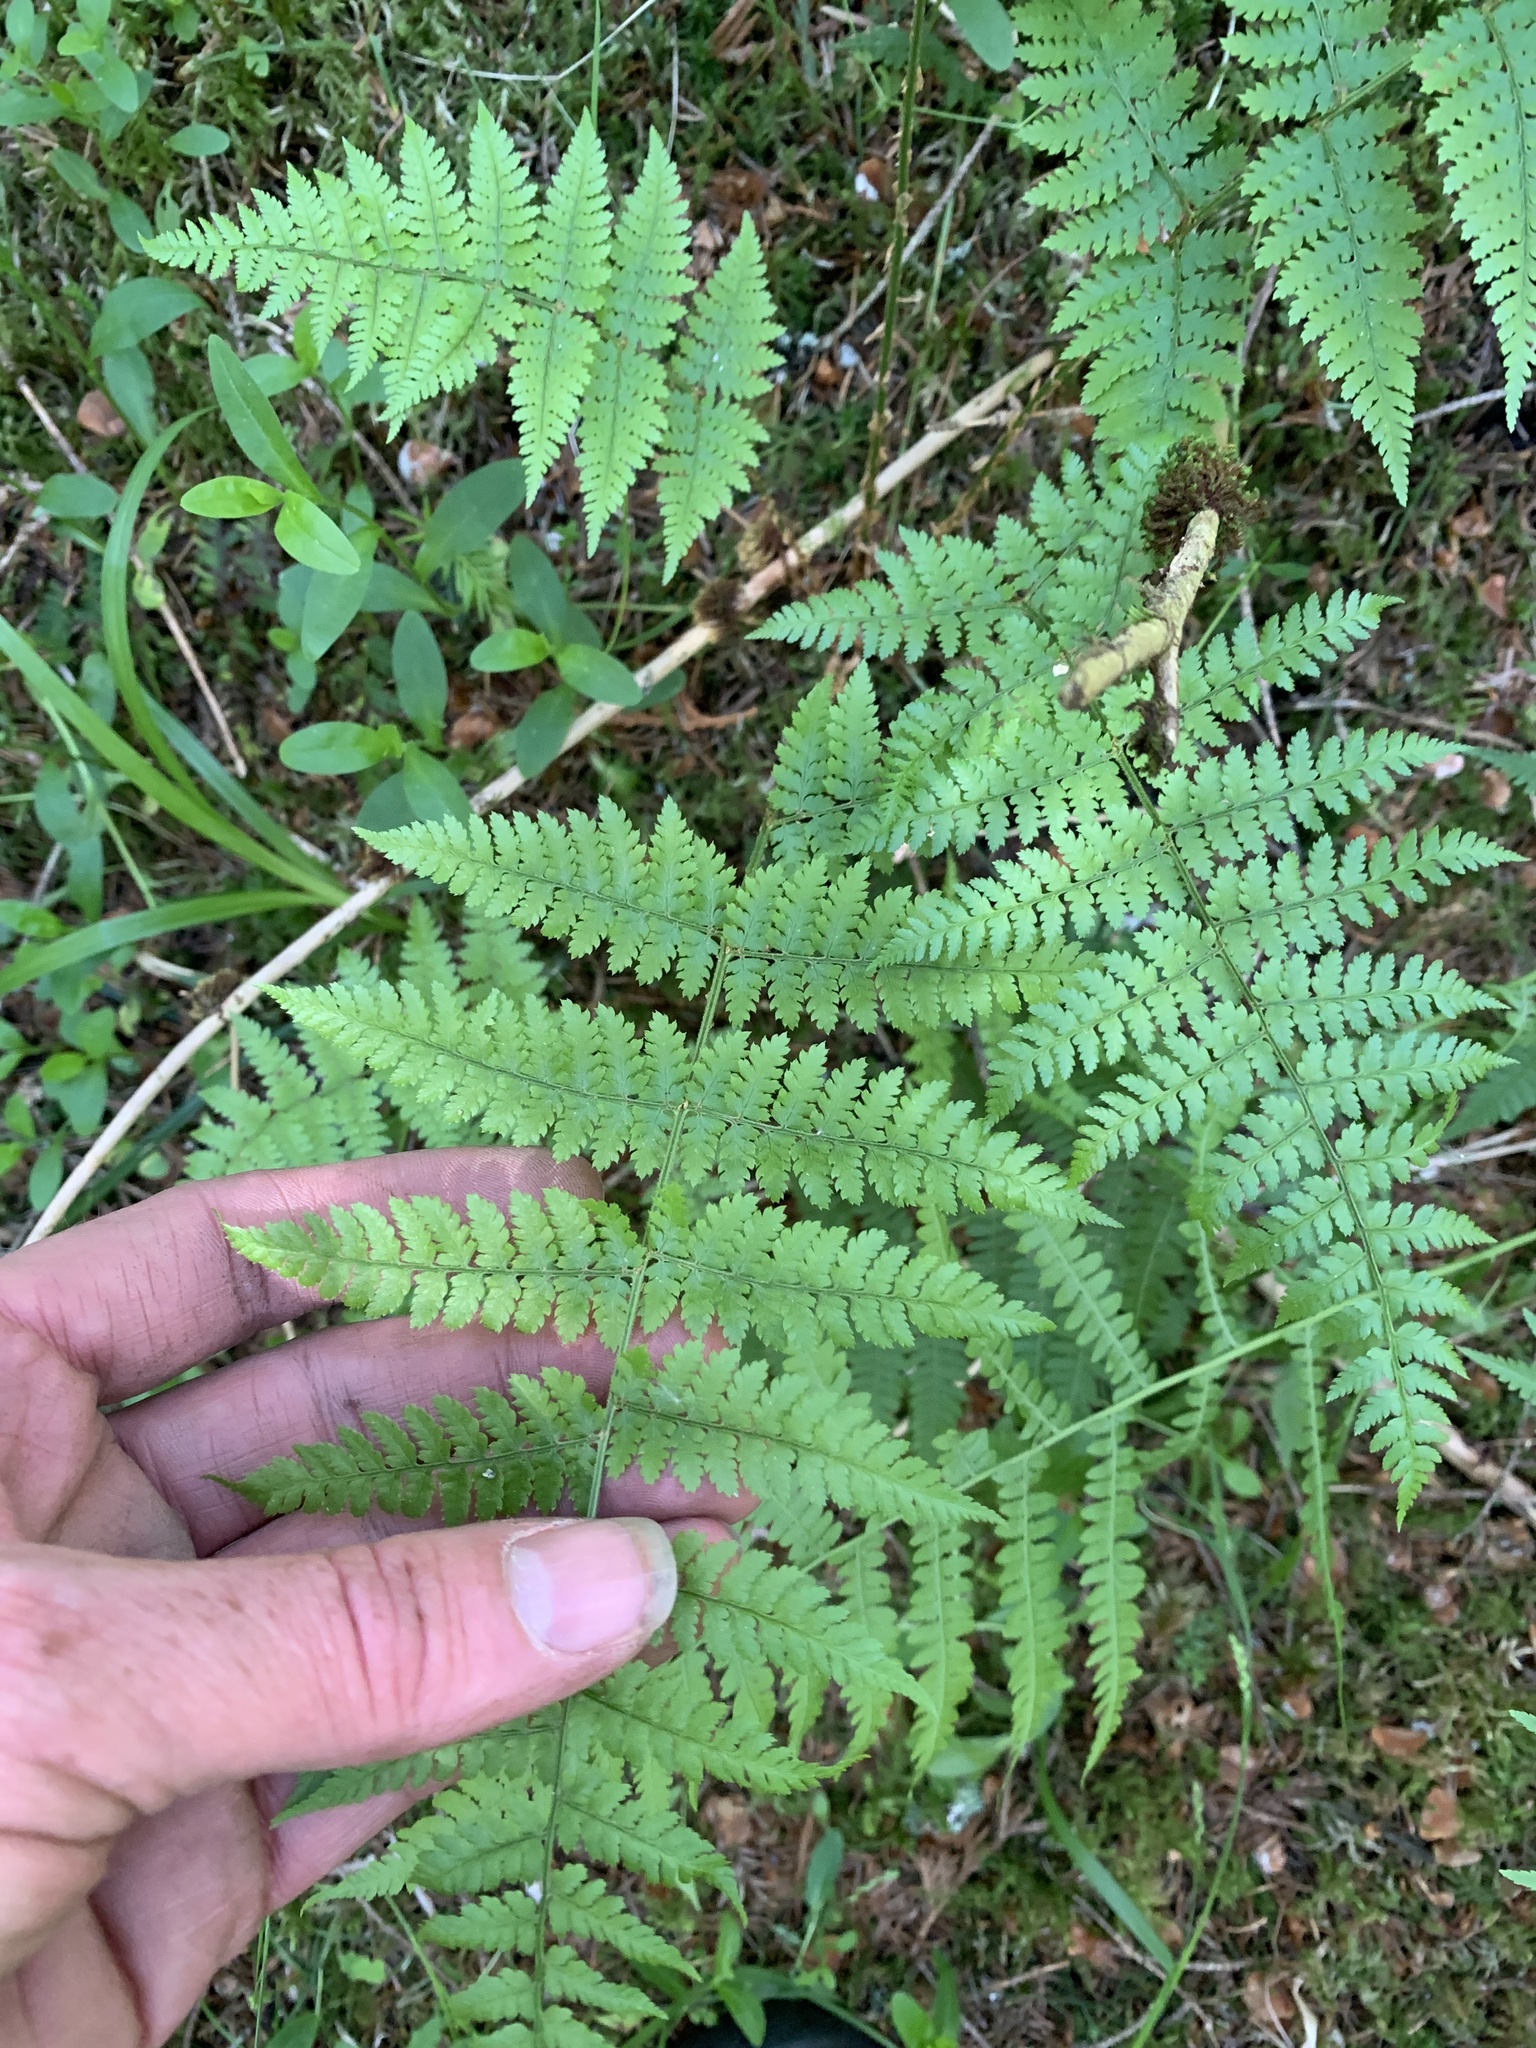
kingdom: Plantae
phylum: Tracheophyta
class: Polypodiopsida
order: Polypodiales
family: Dryopteridaceae
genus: Dryopteris
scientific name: Dryopteris intermedia
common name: Evergreen wood fern
